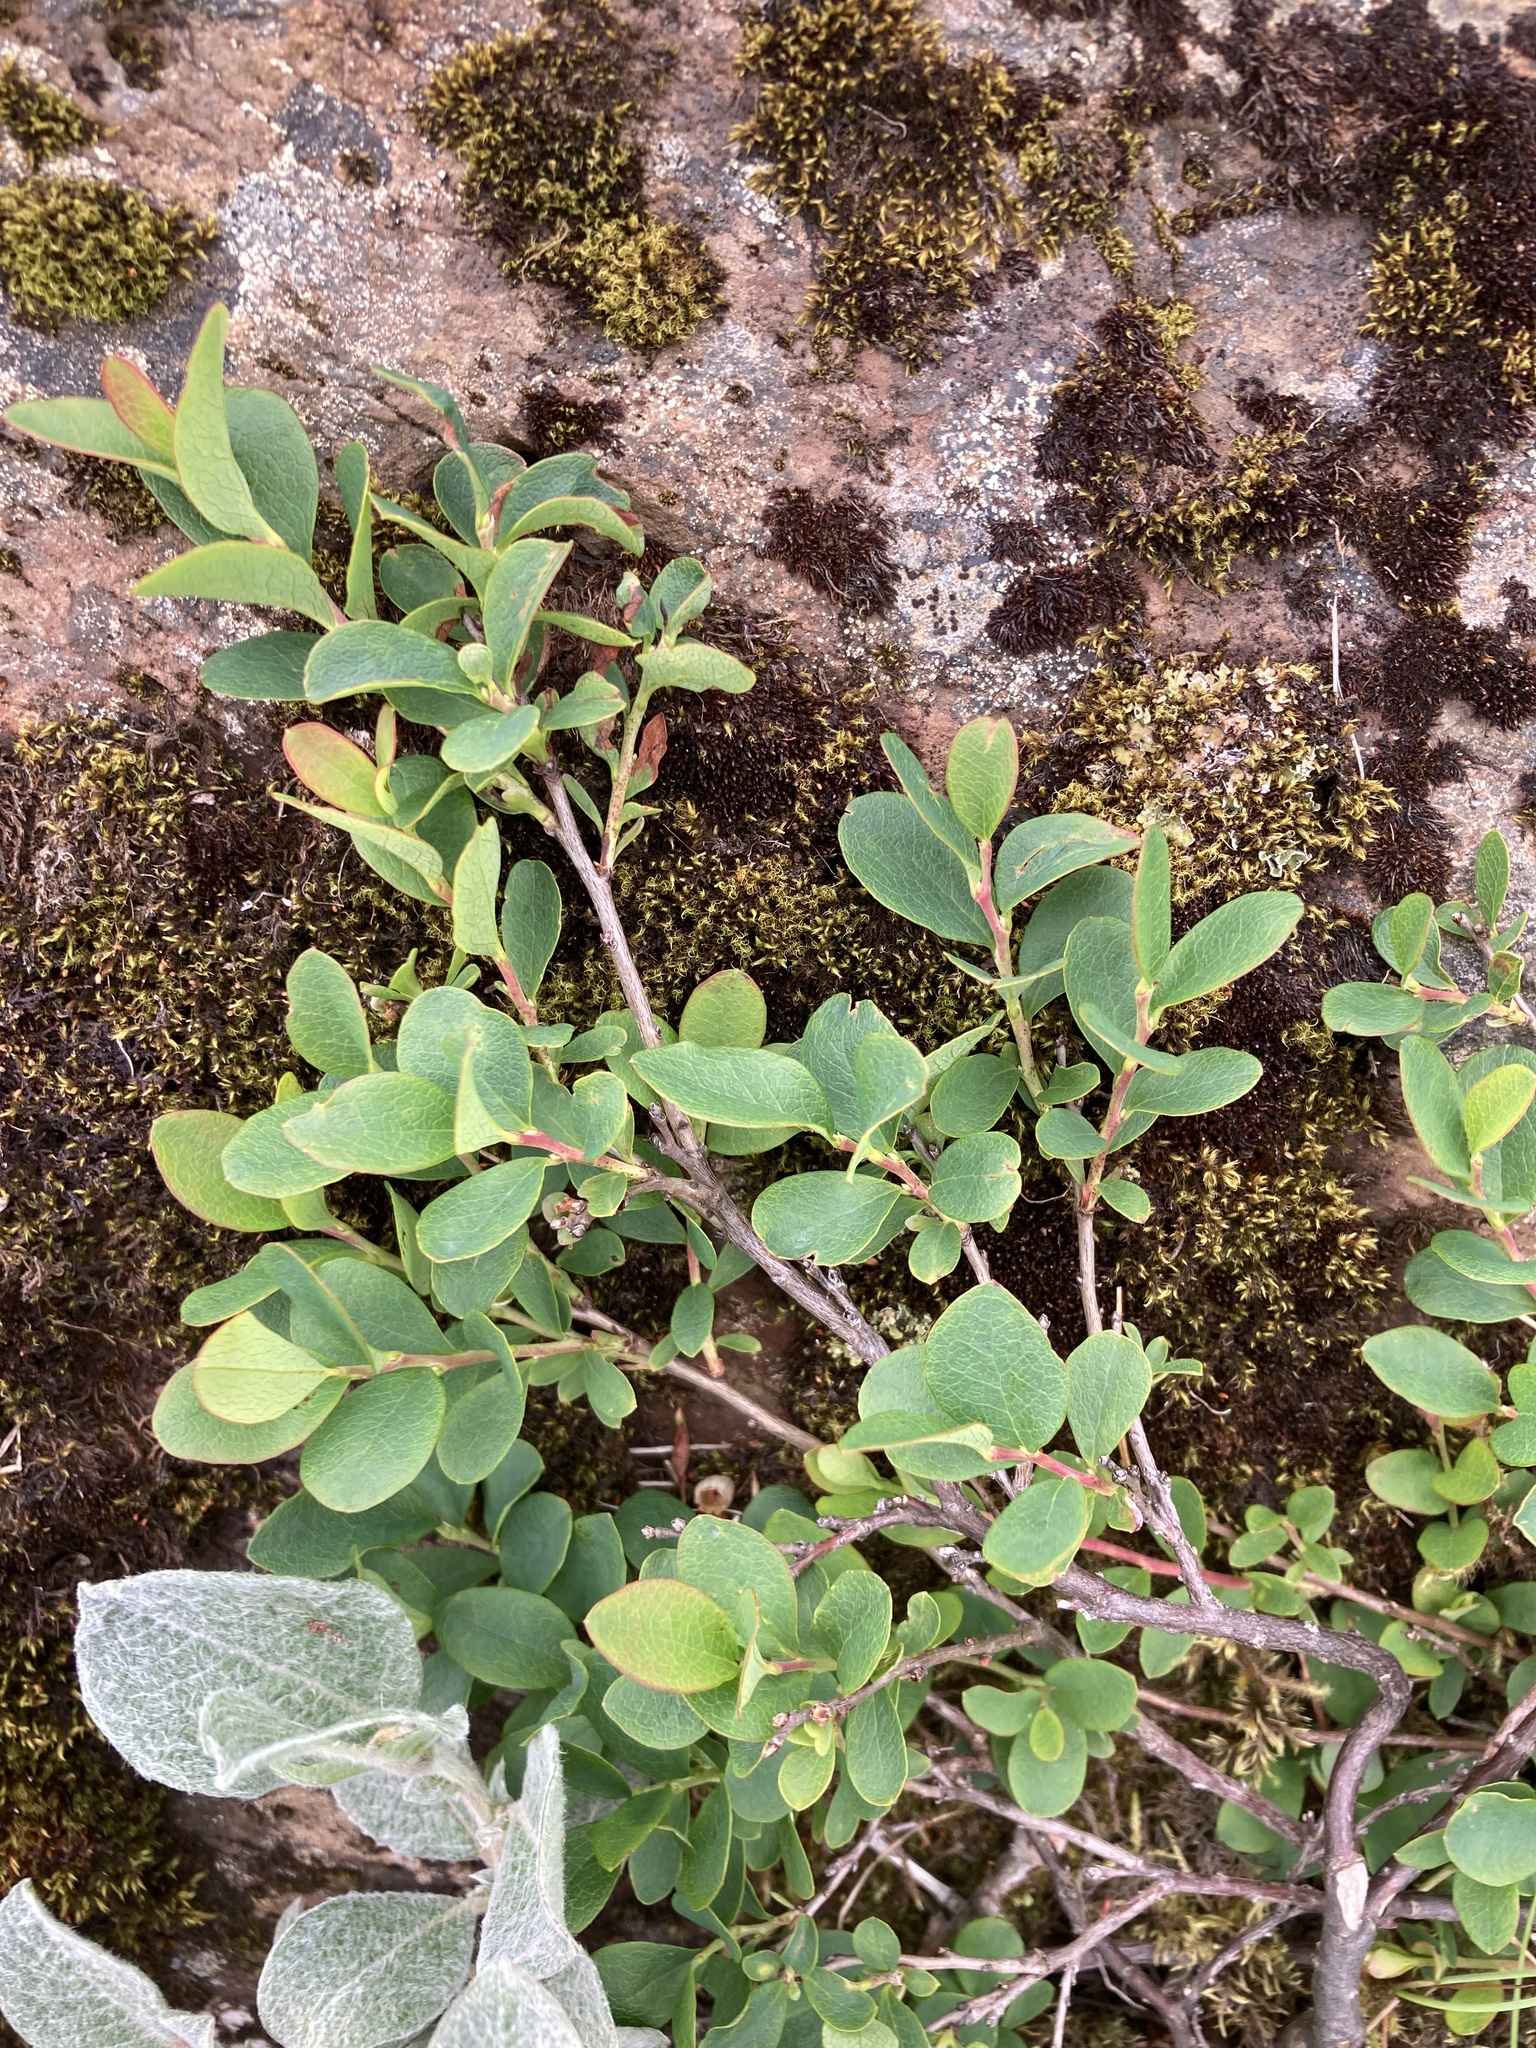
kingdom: Plantae
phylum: Tracheophyta
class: Magnoliopsida
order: Ericales
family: Ericaceae
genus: Vaccinium
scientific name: Vaccinium uliginosum
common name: Bog bilberry
